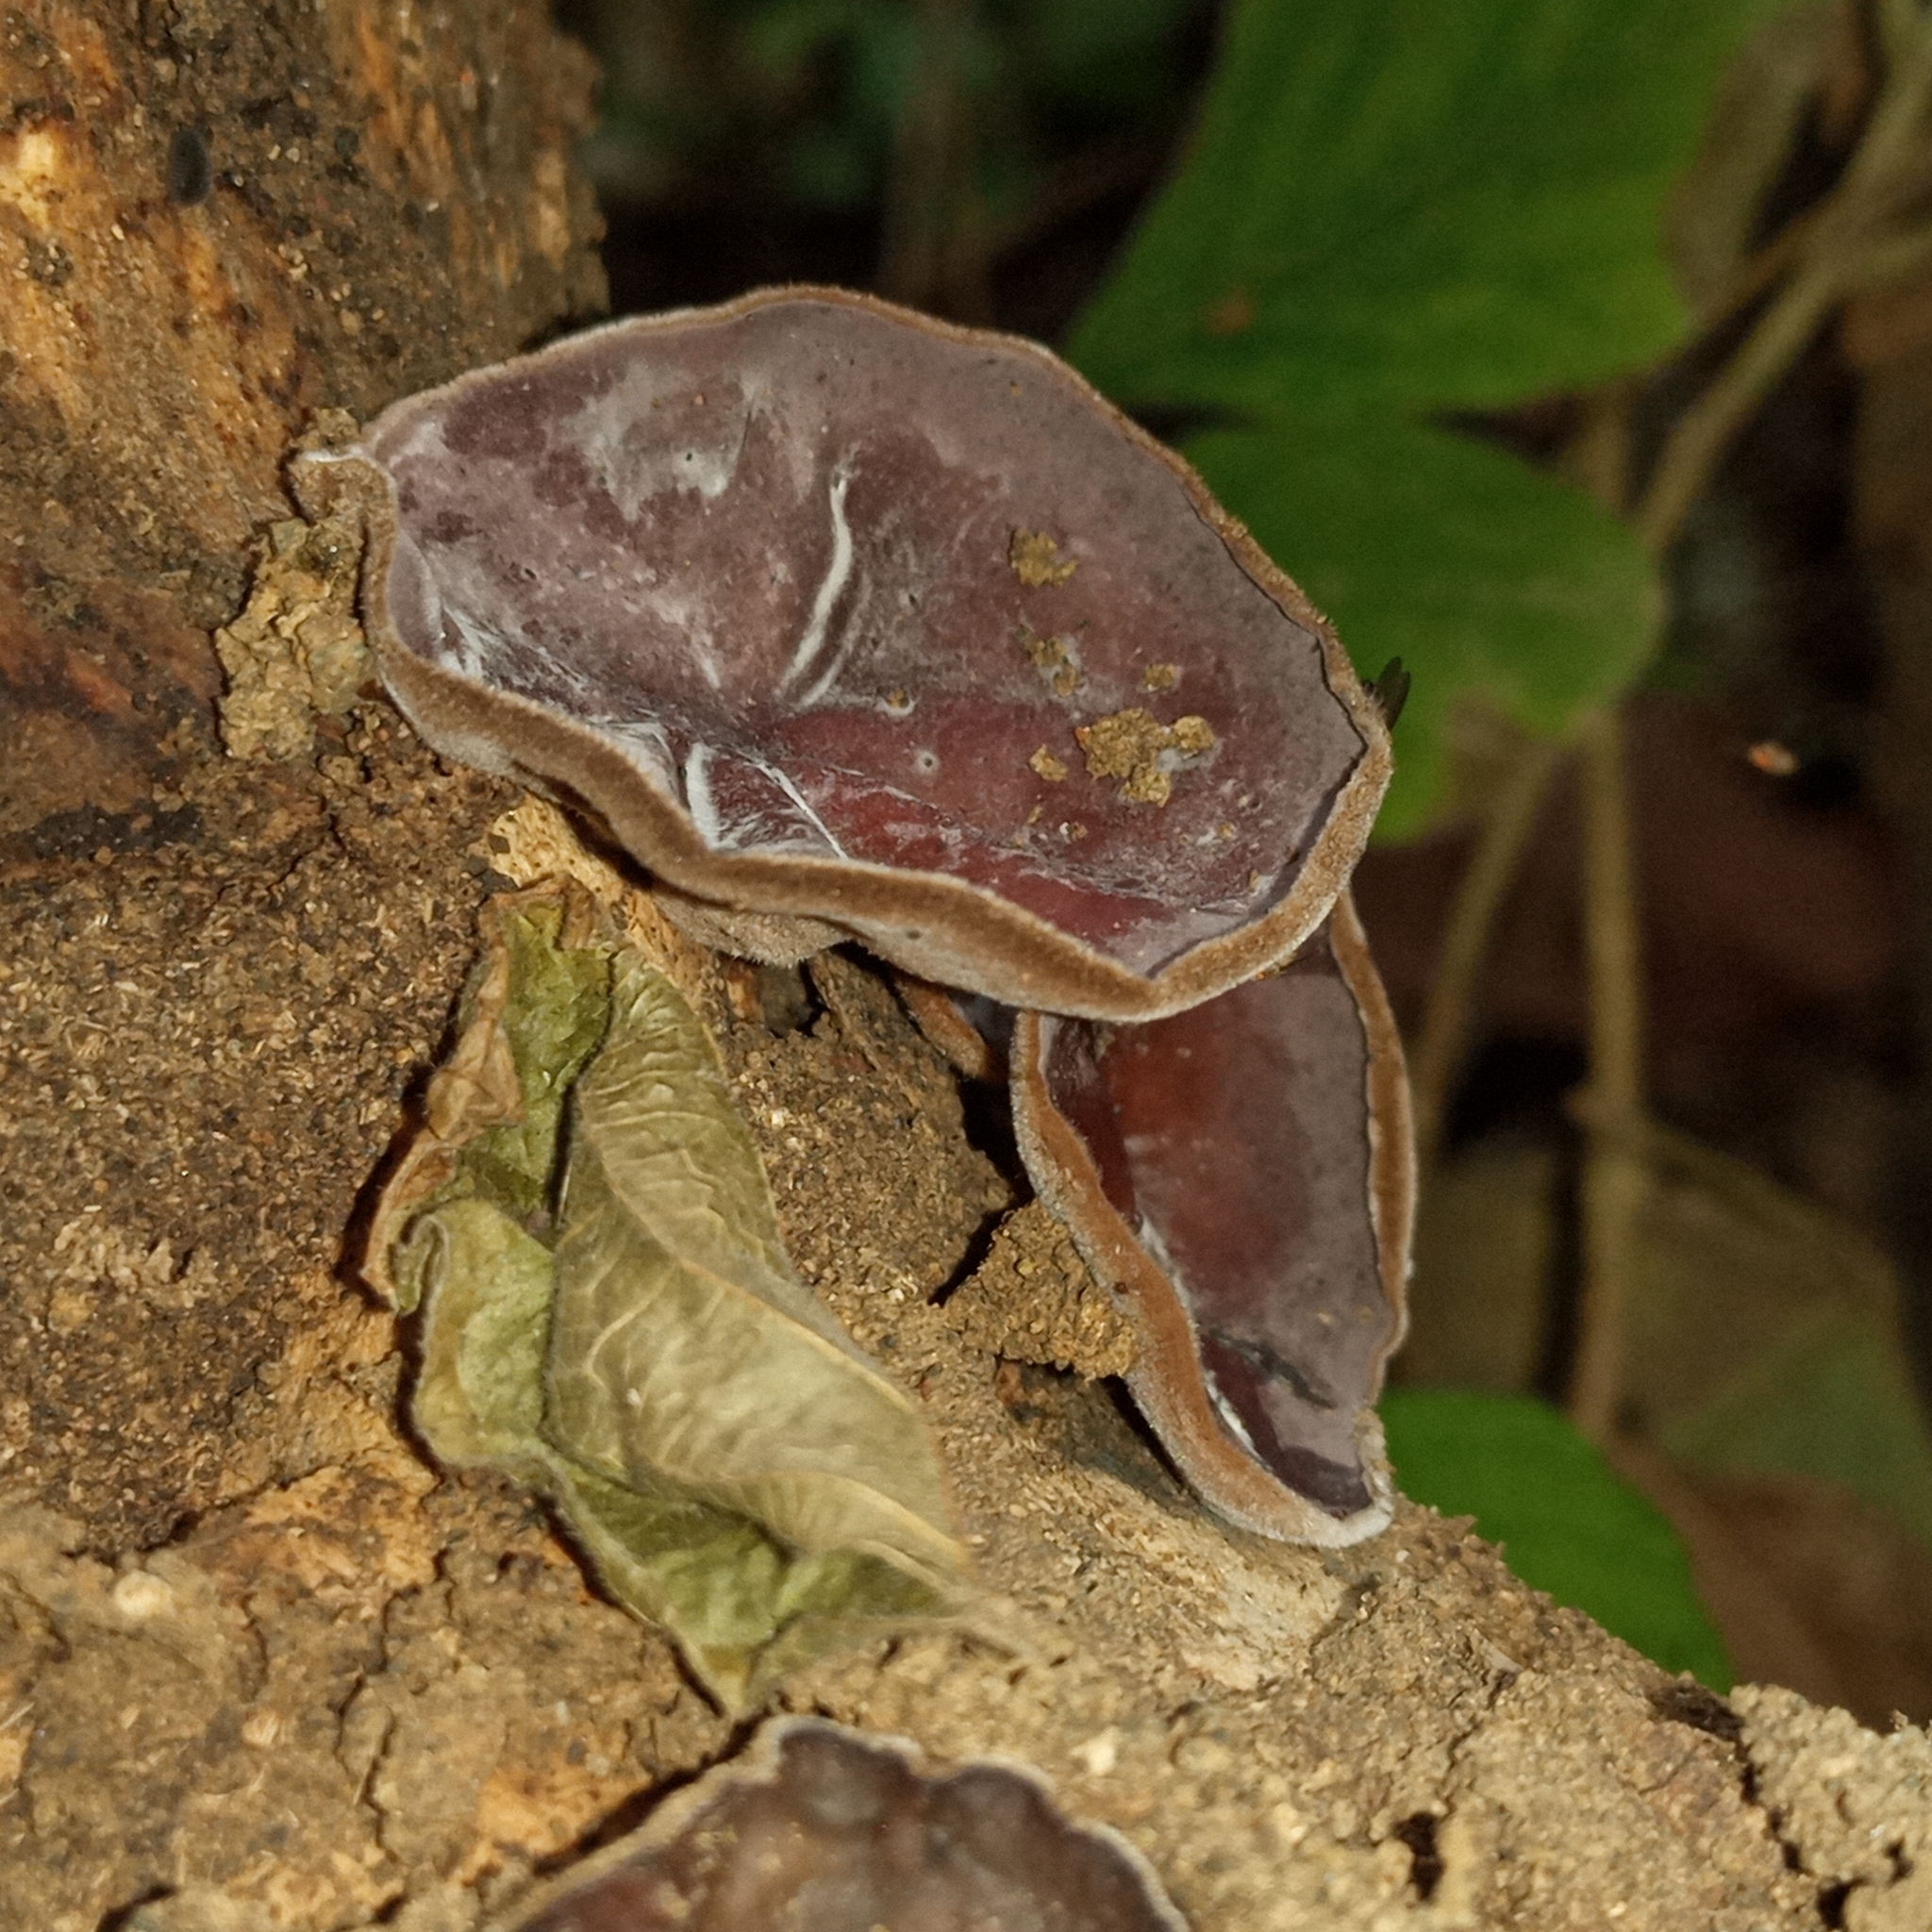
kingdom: Fungi
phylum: Basidiomycota
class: Agaricomycetes
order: Auriculariales
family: Auriculariaceae
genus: Auricularia
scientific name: Auricularia nigricans
